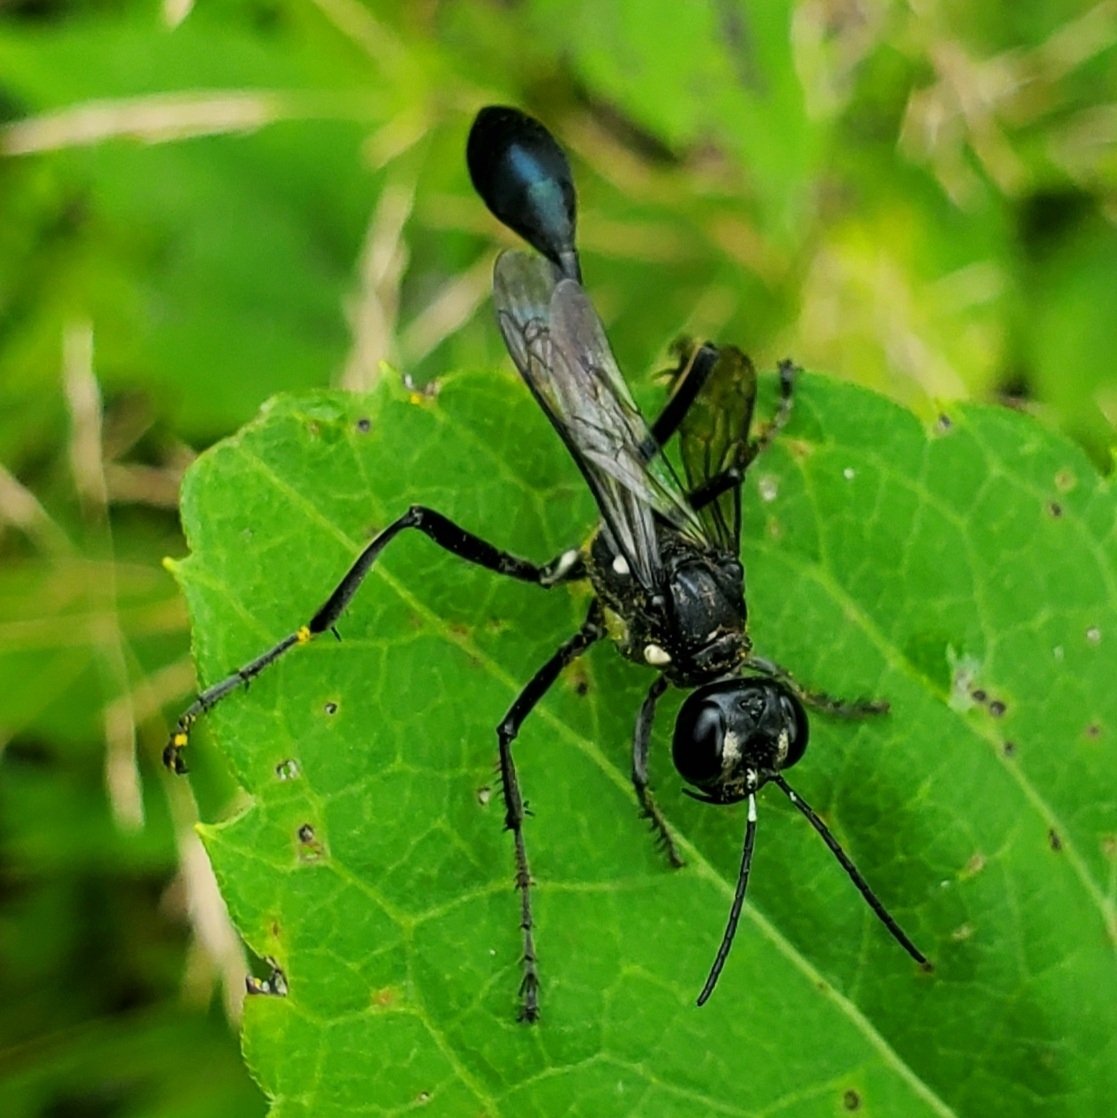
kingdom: Animalia
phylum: Arthropoda
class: Insecta
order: Hymenoptera
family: Sphecidae
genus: Eremnophila
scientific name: Eremnophila aureonotata
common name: Gold-marked thread-waisted wasp
